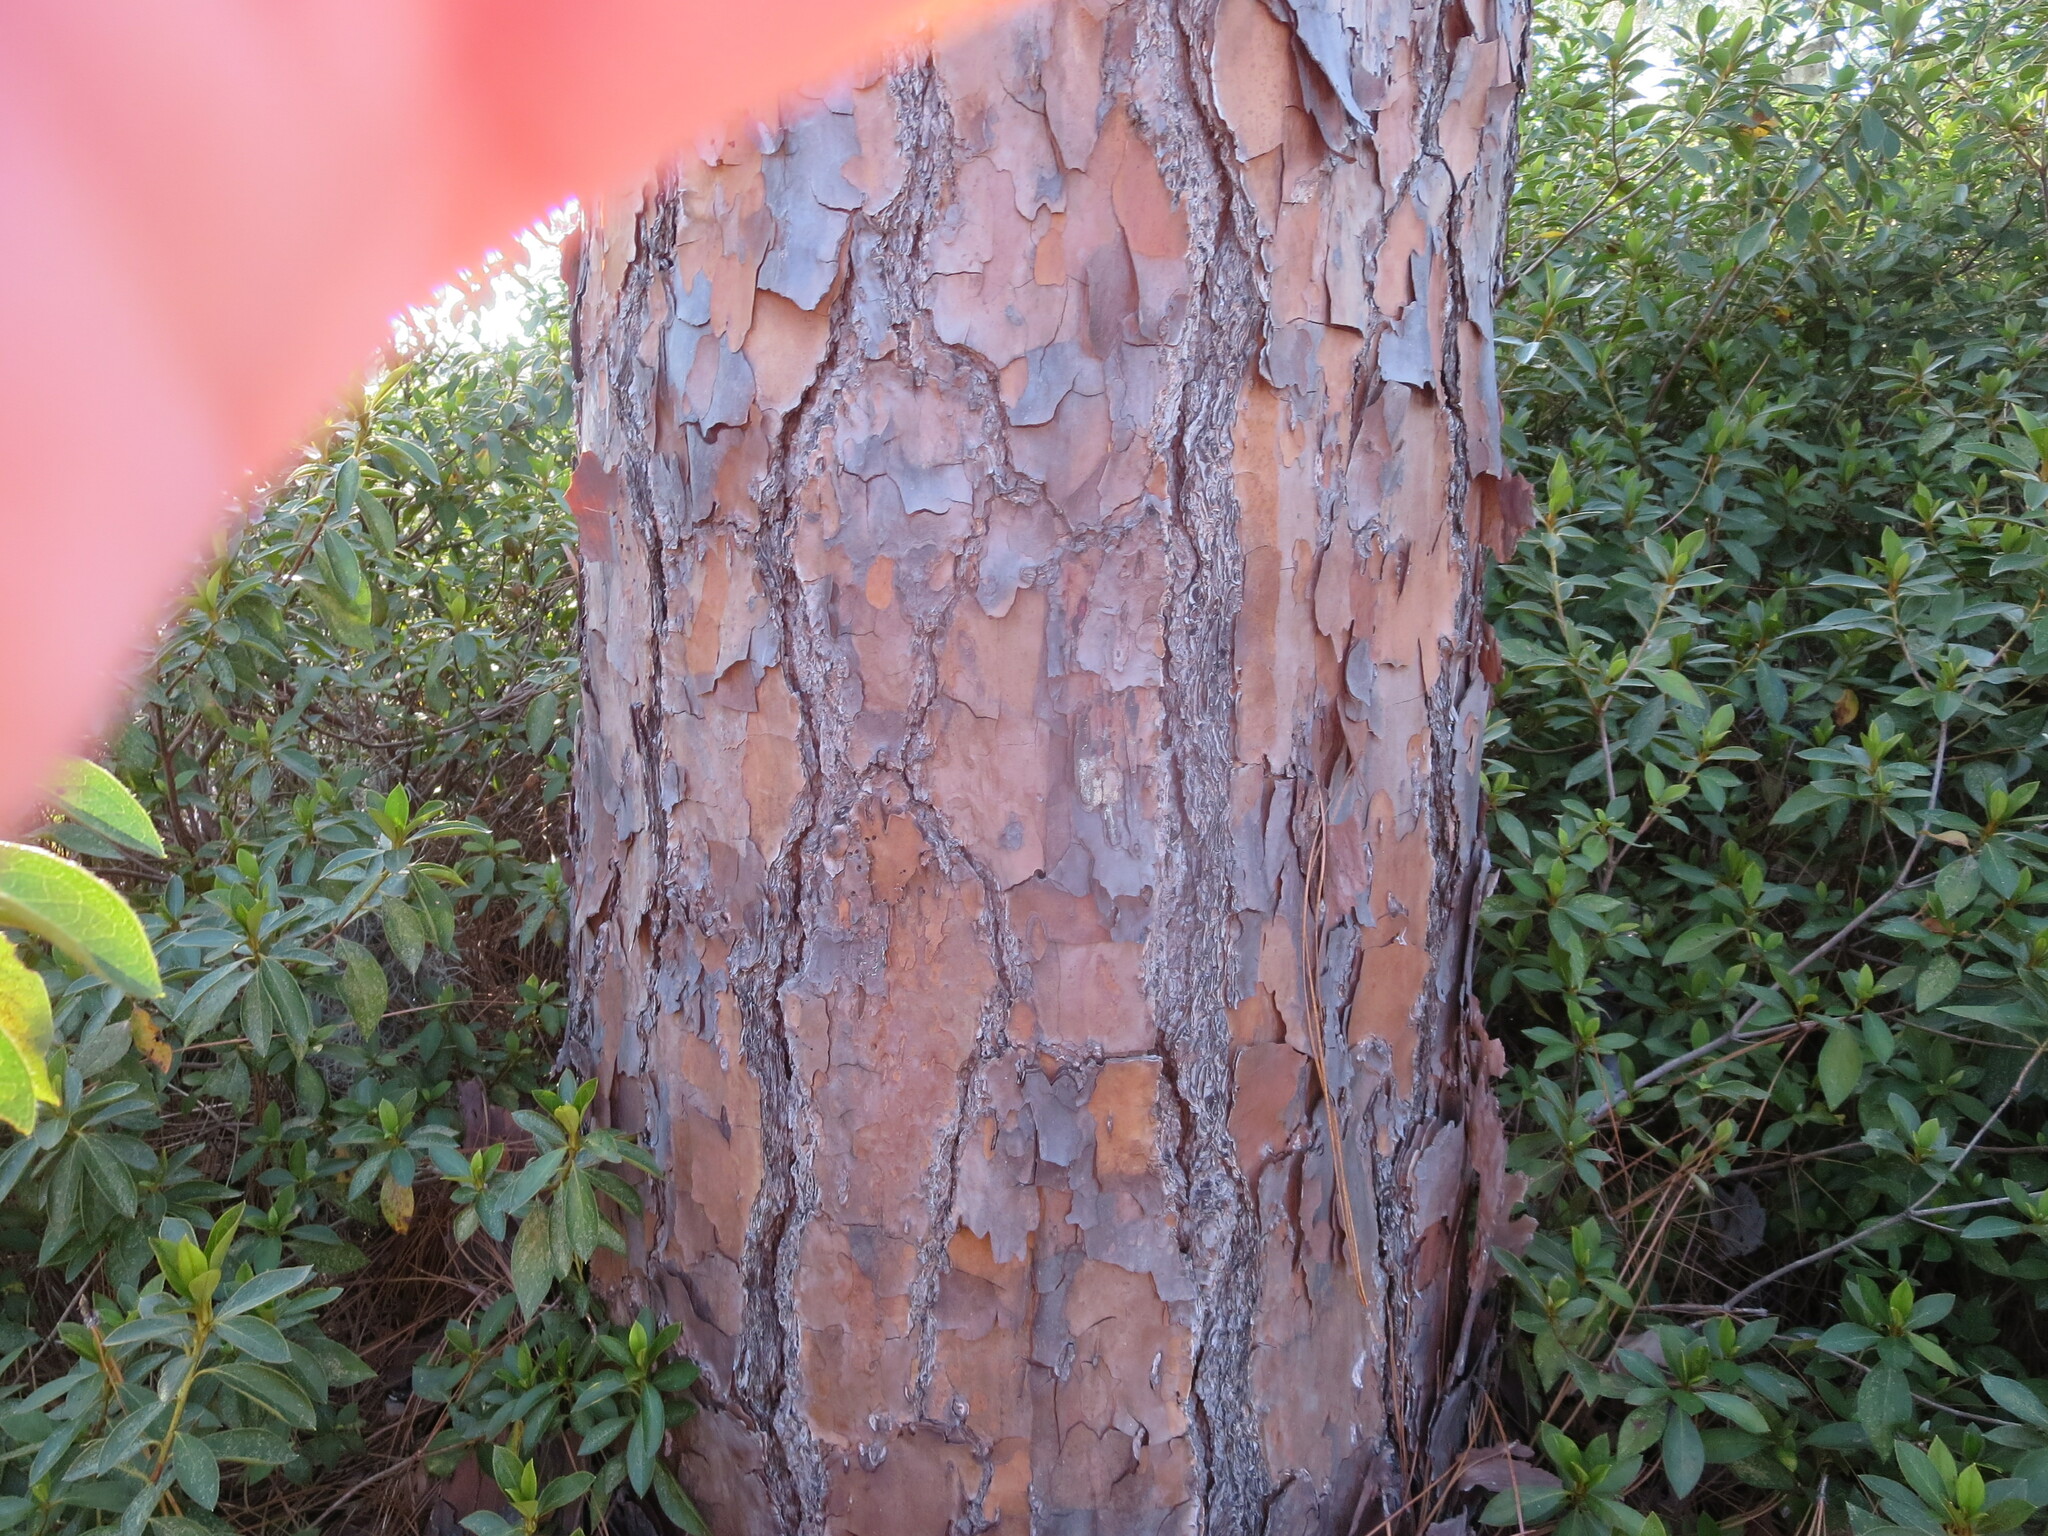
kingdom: Plantae
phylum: Tracheophyta
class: Pinopsida
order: Pinales
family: Pinaceae
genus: Pinus
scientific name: Pinus palustris
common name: Longleaf pine
